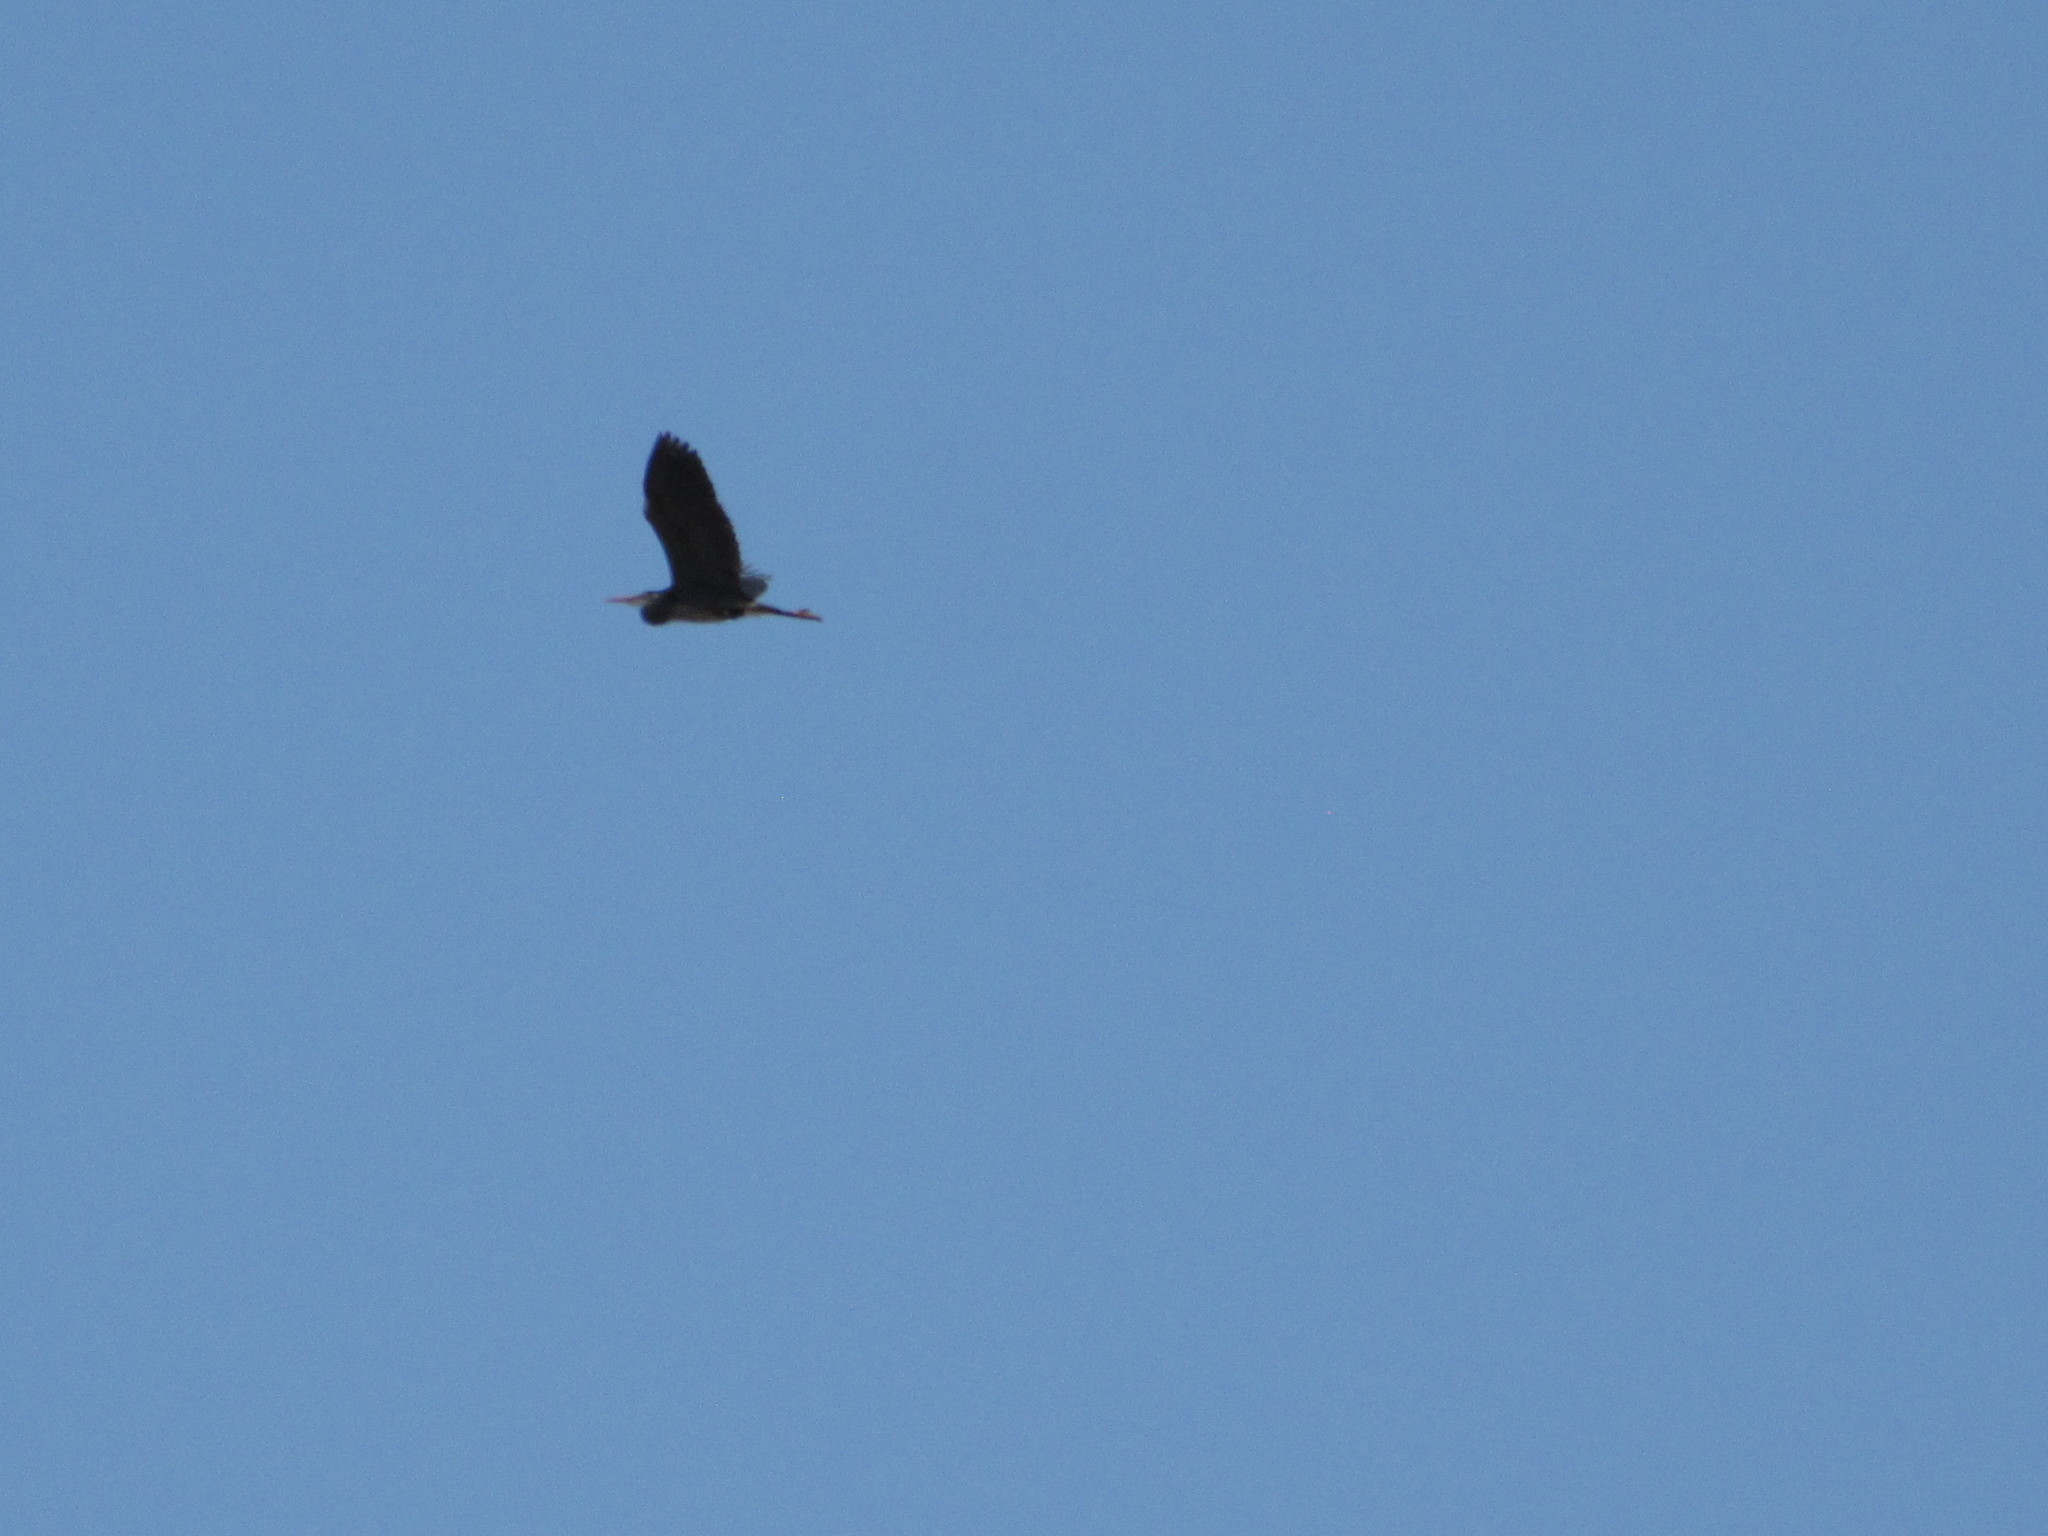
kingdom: Animalia
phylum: Chordata
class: Aves
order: Pelecaniformes
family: Ardeidae
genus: Ardea
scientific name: Ardea herodias
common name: Great blue heron
